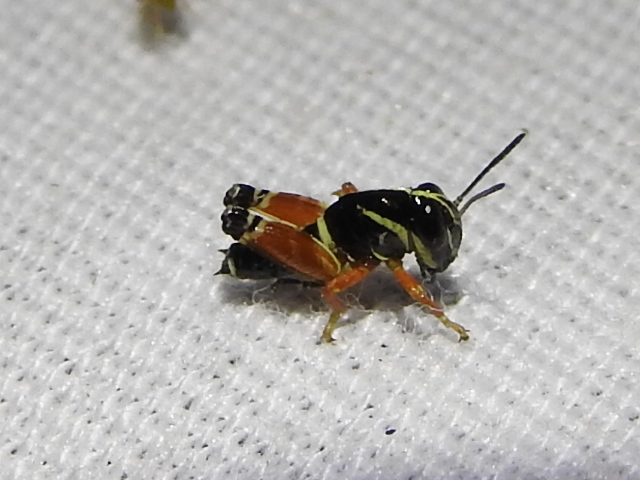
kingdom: Animalia
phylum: Arthropoda
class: Insecta
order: Orthoptera
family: Acrididae
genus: Aidemona
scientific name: Aidemona azteca
